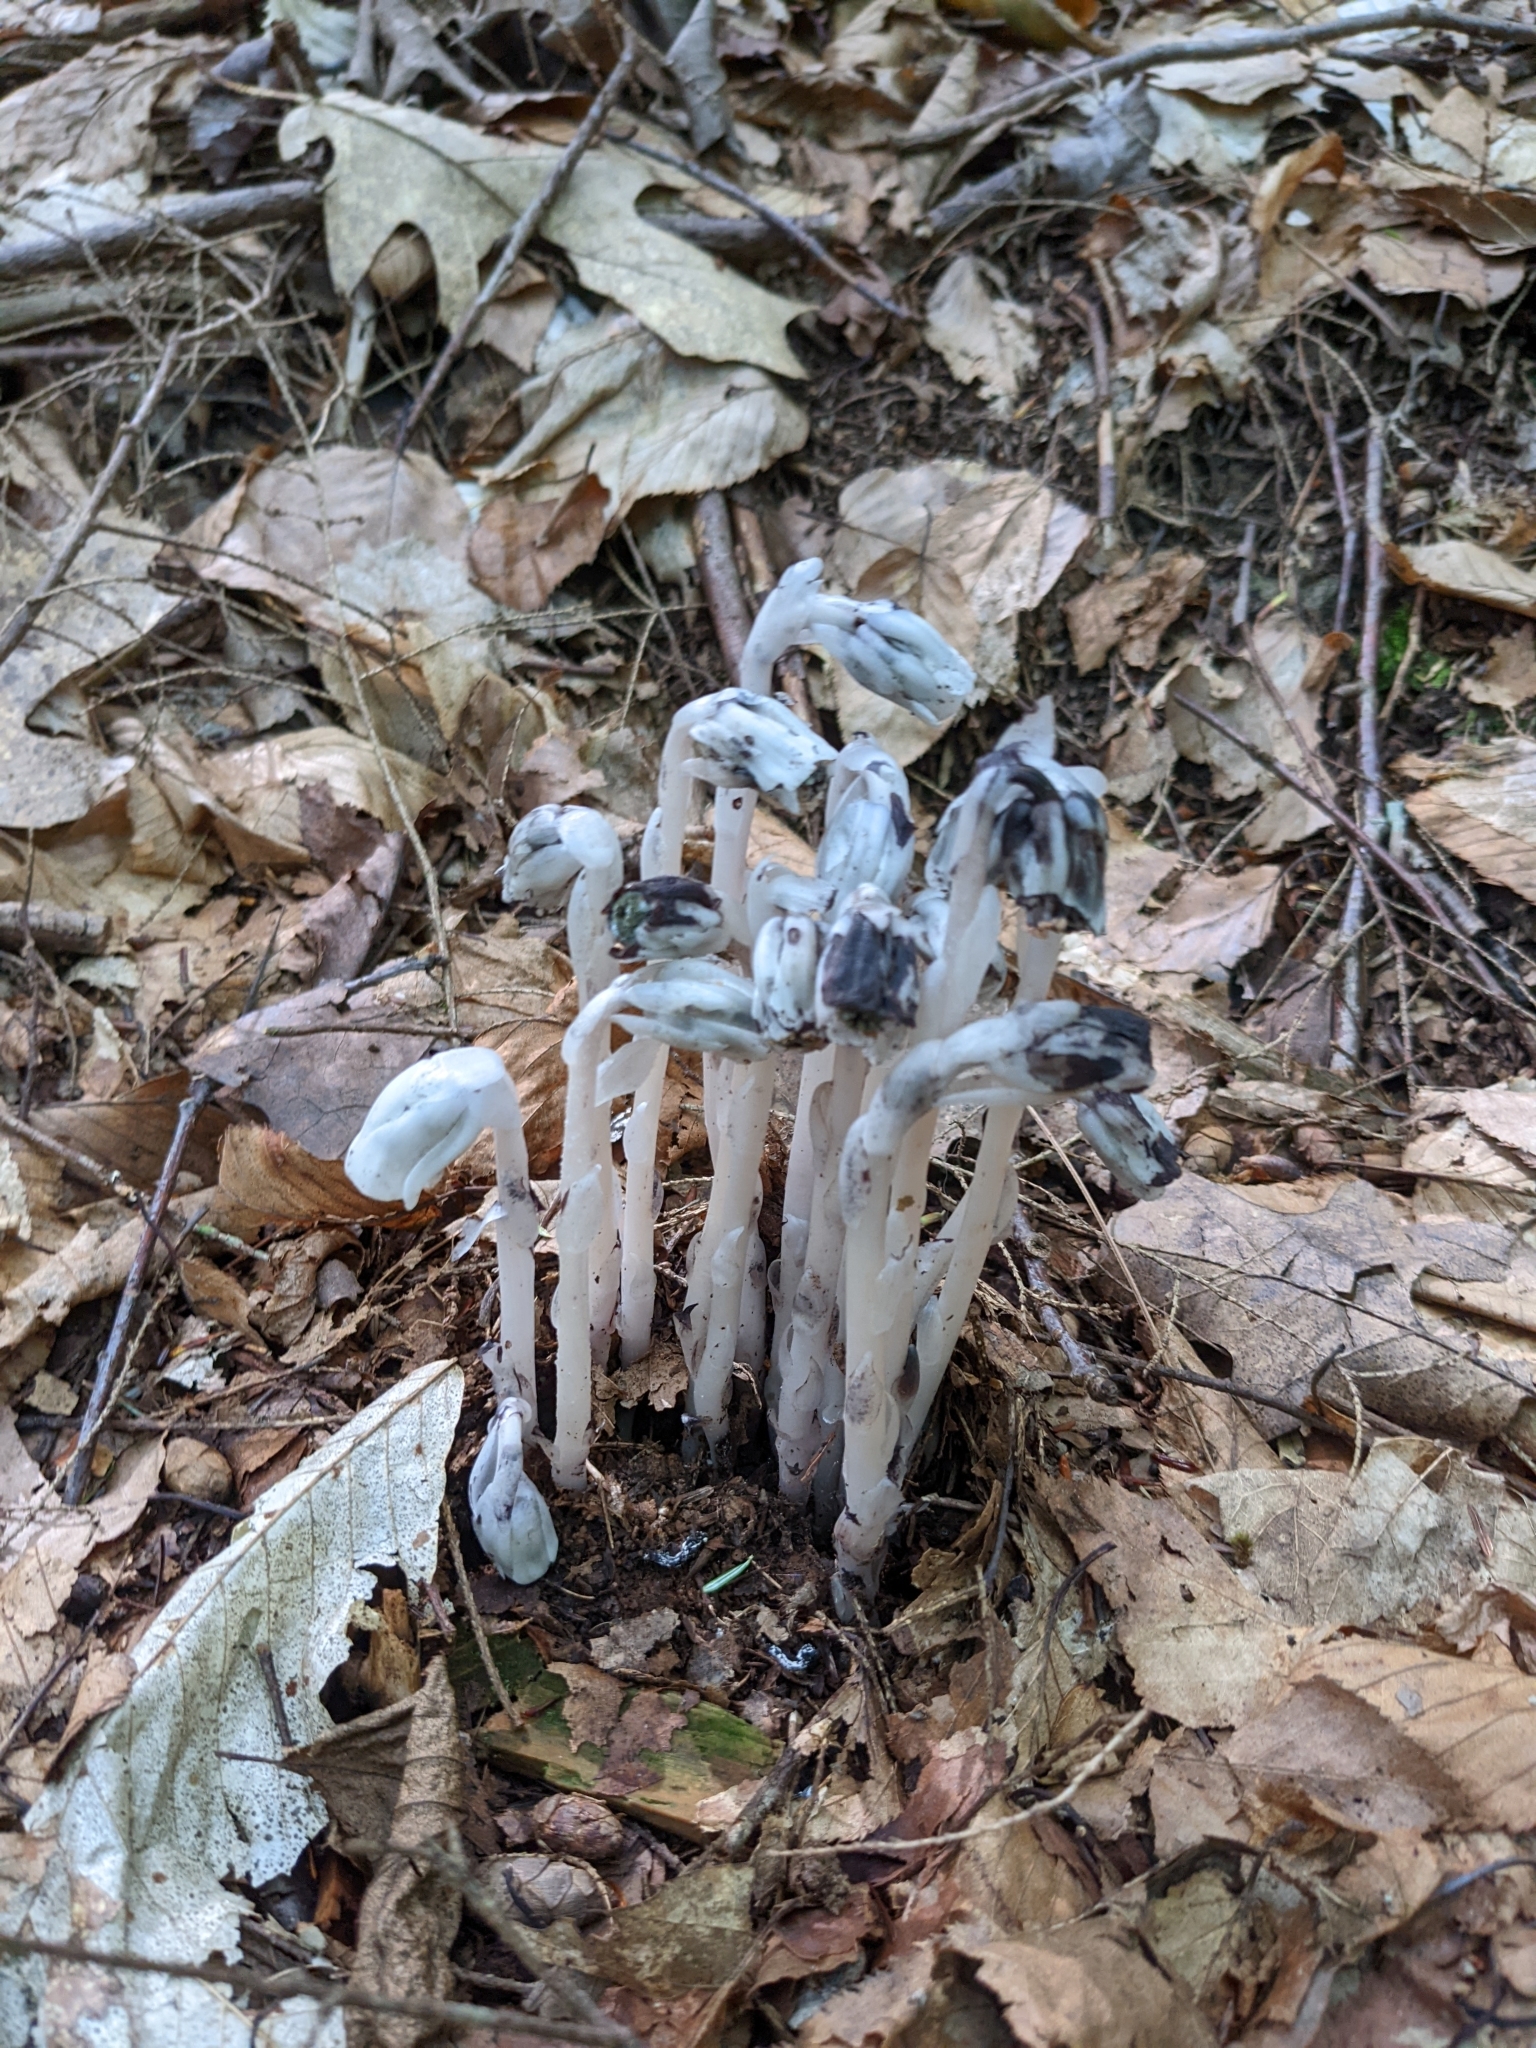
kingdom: Plantae
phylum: Tracheophyta
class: Magnoliopsida
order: Ericales
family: Ericaceae
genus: Monotropa
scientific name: Monotropa uniflora
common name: Convulsion root
